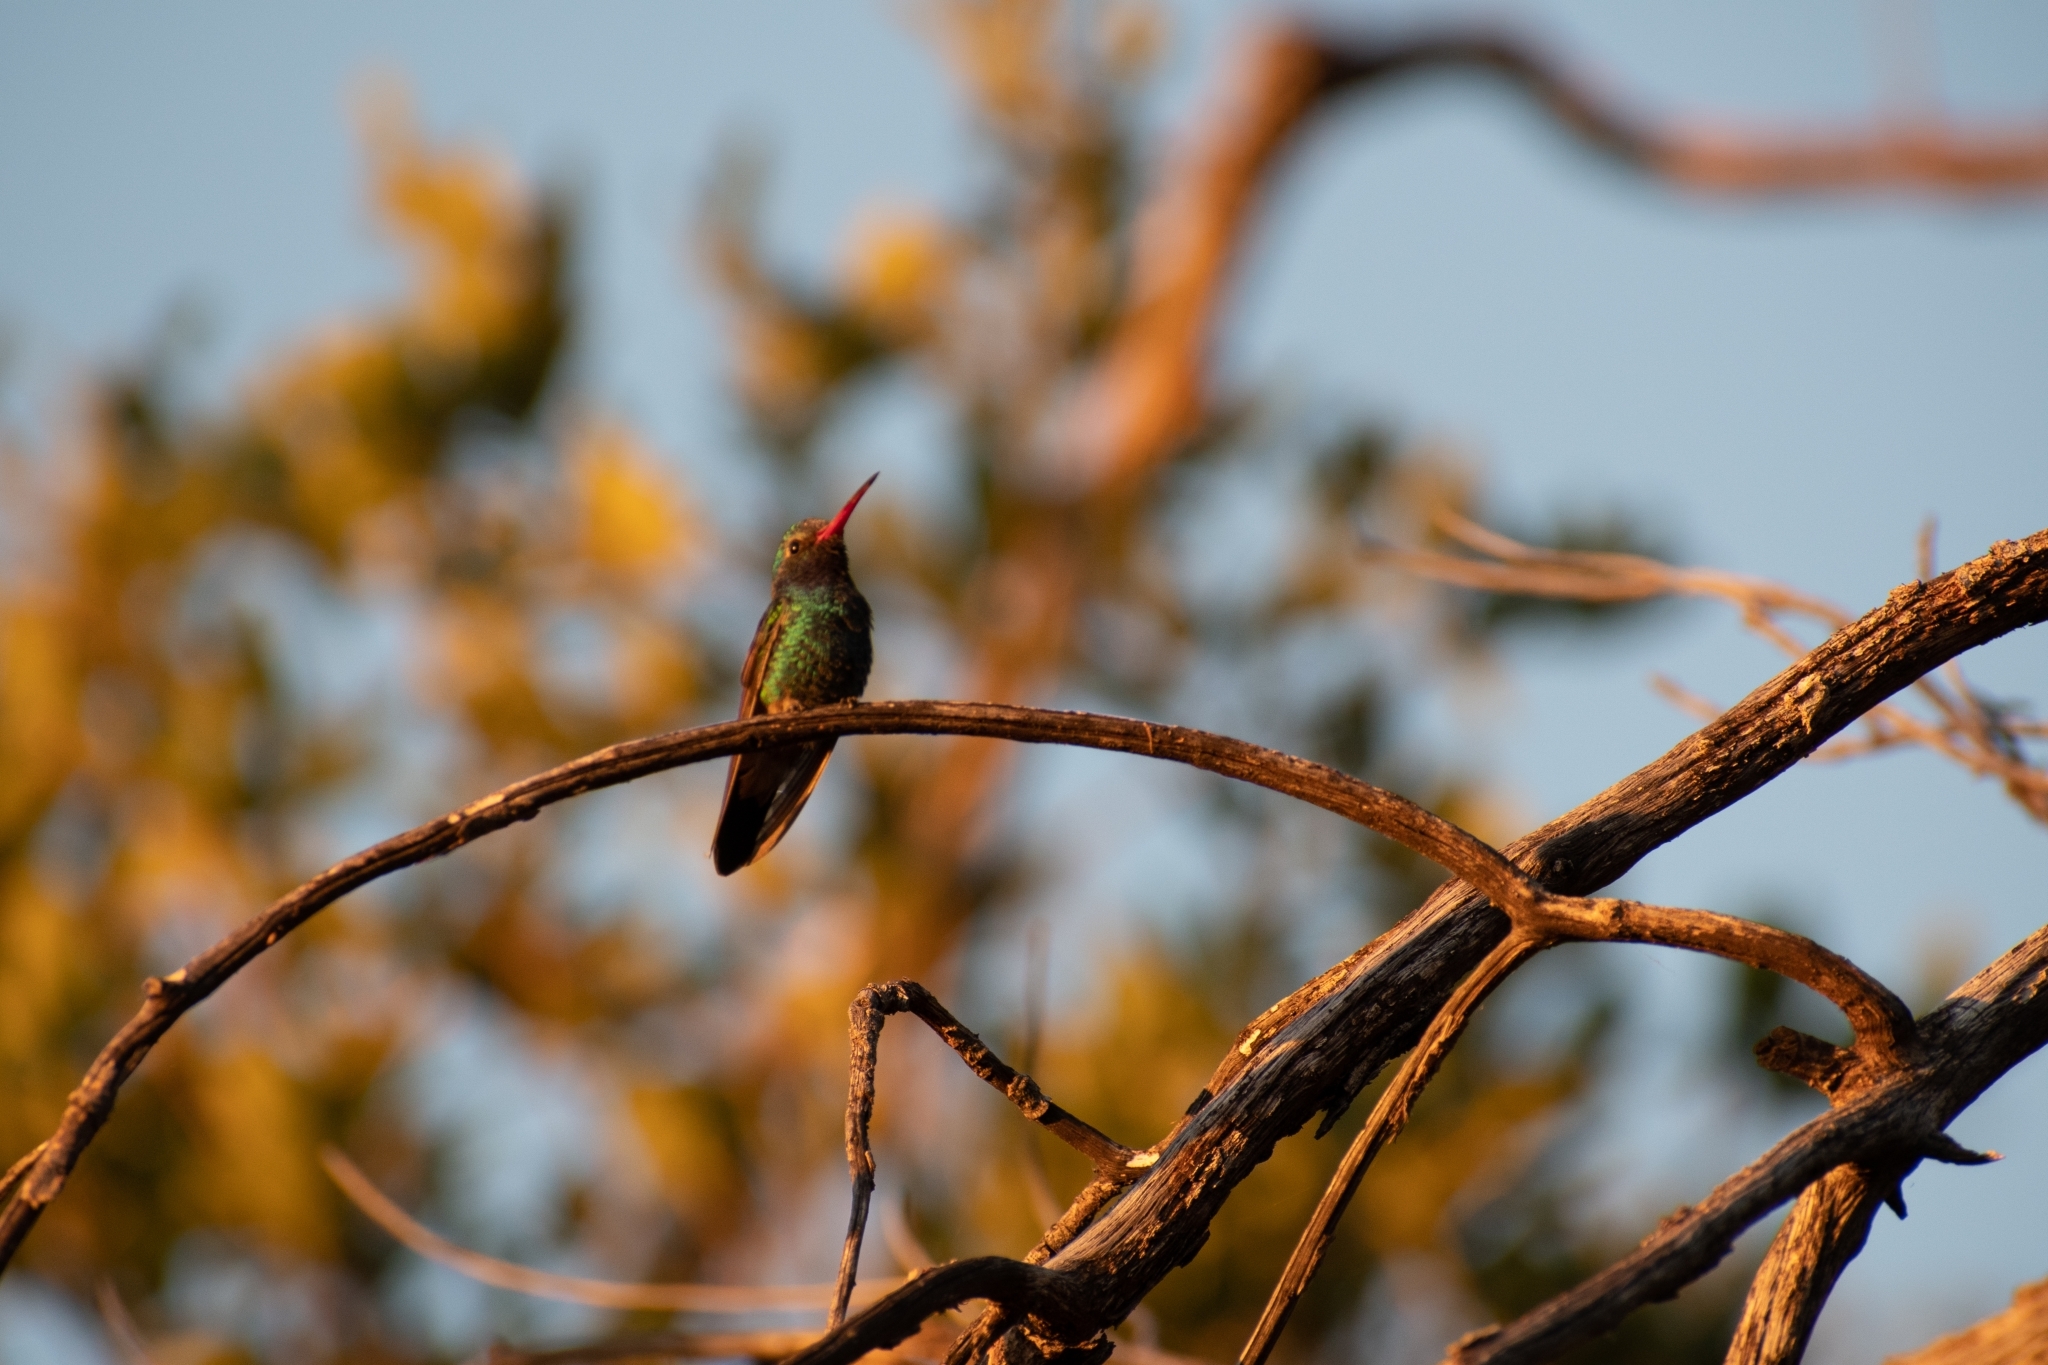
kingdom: Animalia
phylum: Chordata
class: Aves
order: Apodiformes
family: Trochilidae
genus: Cynanthus
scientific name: Cynanthus latirostris
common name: Broad-billed hummingbird
